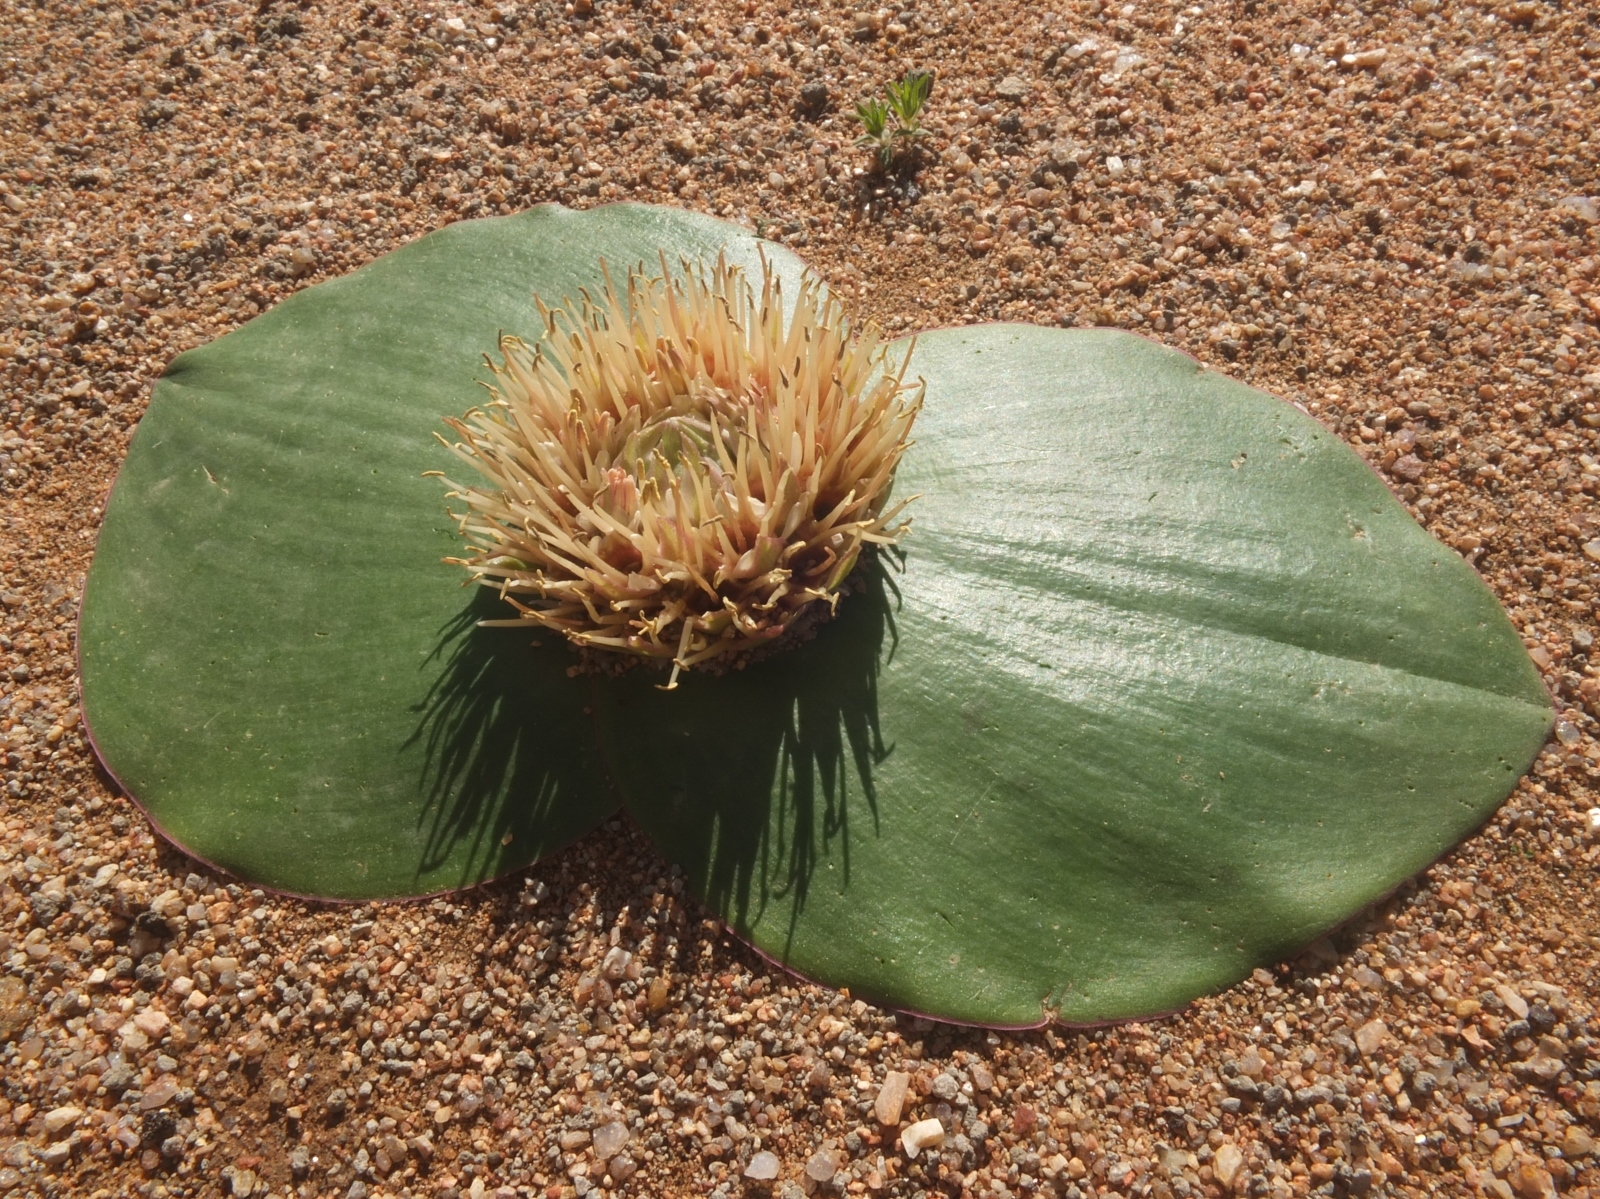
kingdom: Plantae
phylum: Tracheophyta
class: Liliopsida
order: Asparagales
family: Asparagaceae
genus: Massonia
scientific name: Massonia depressa
